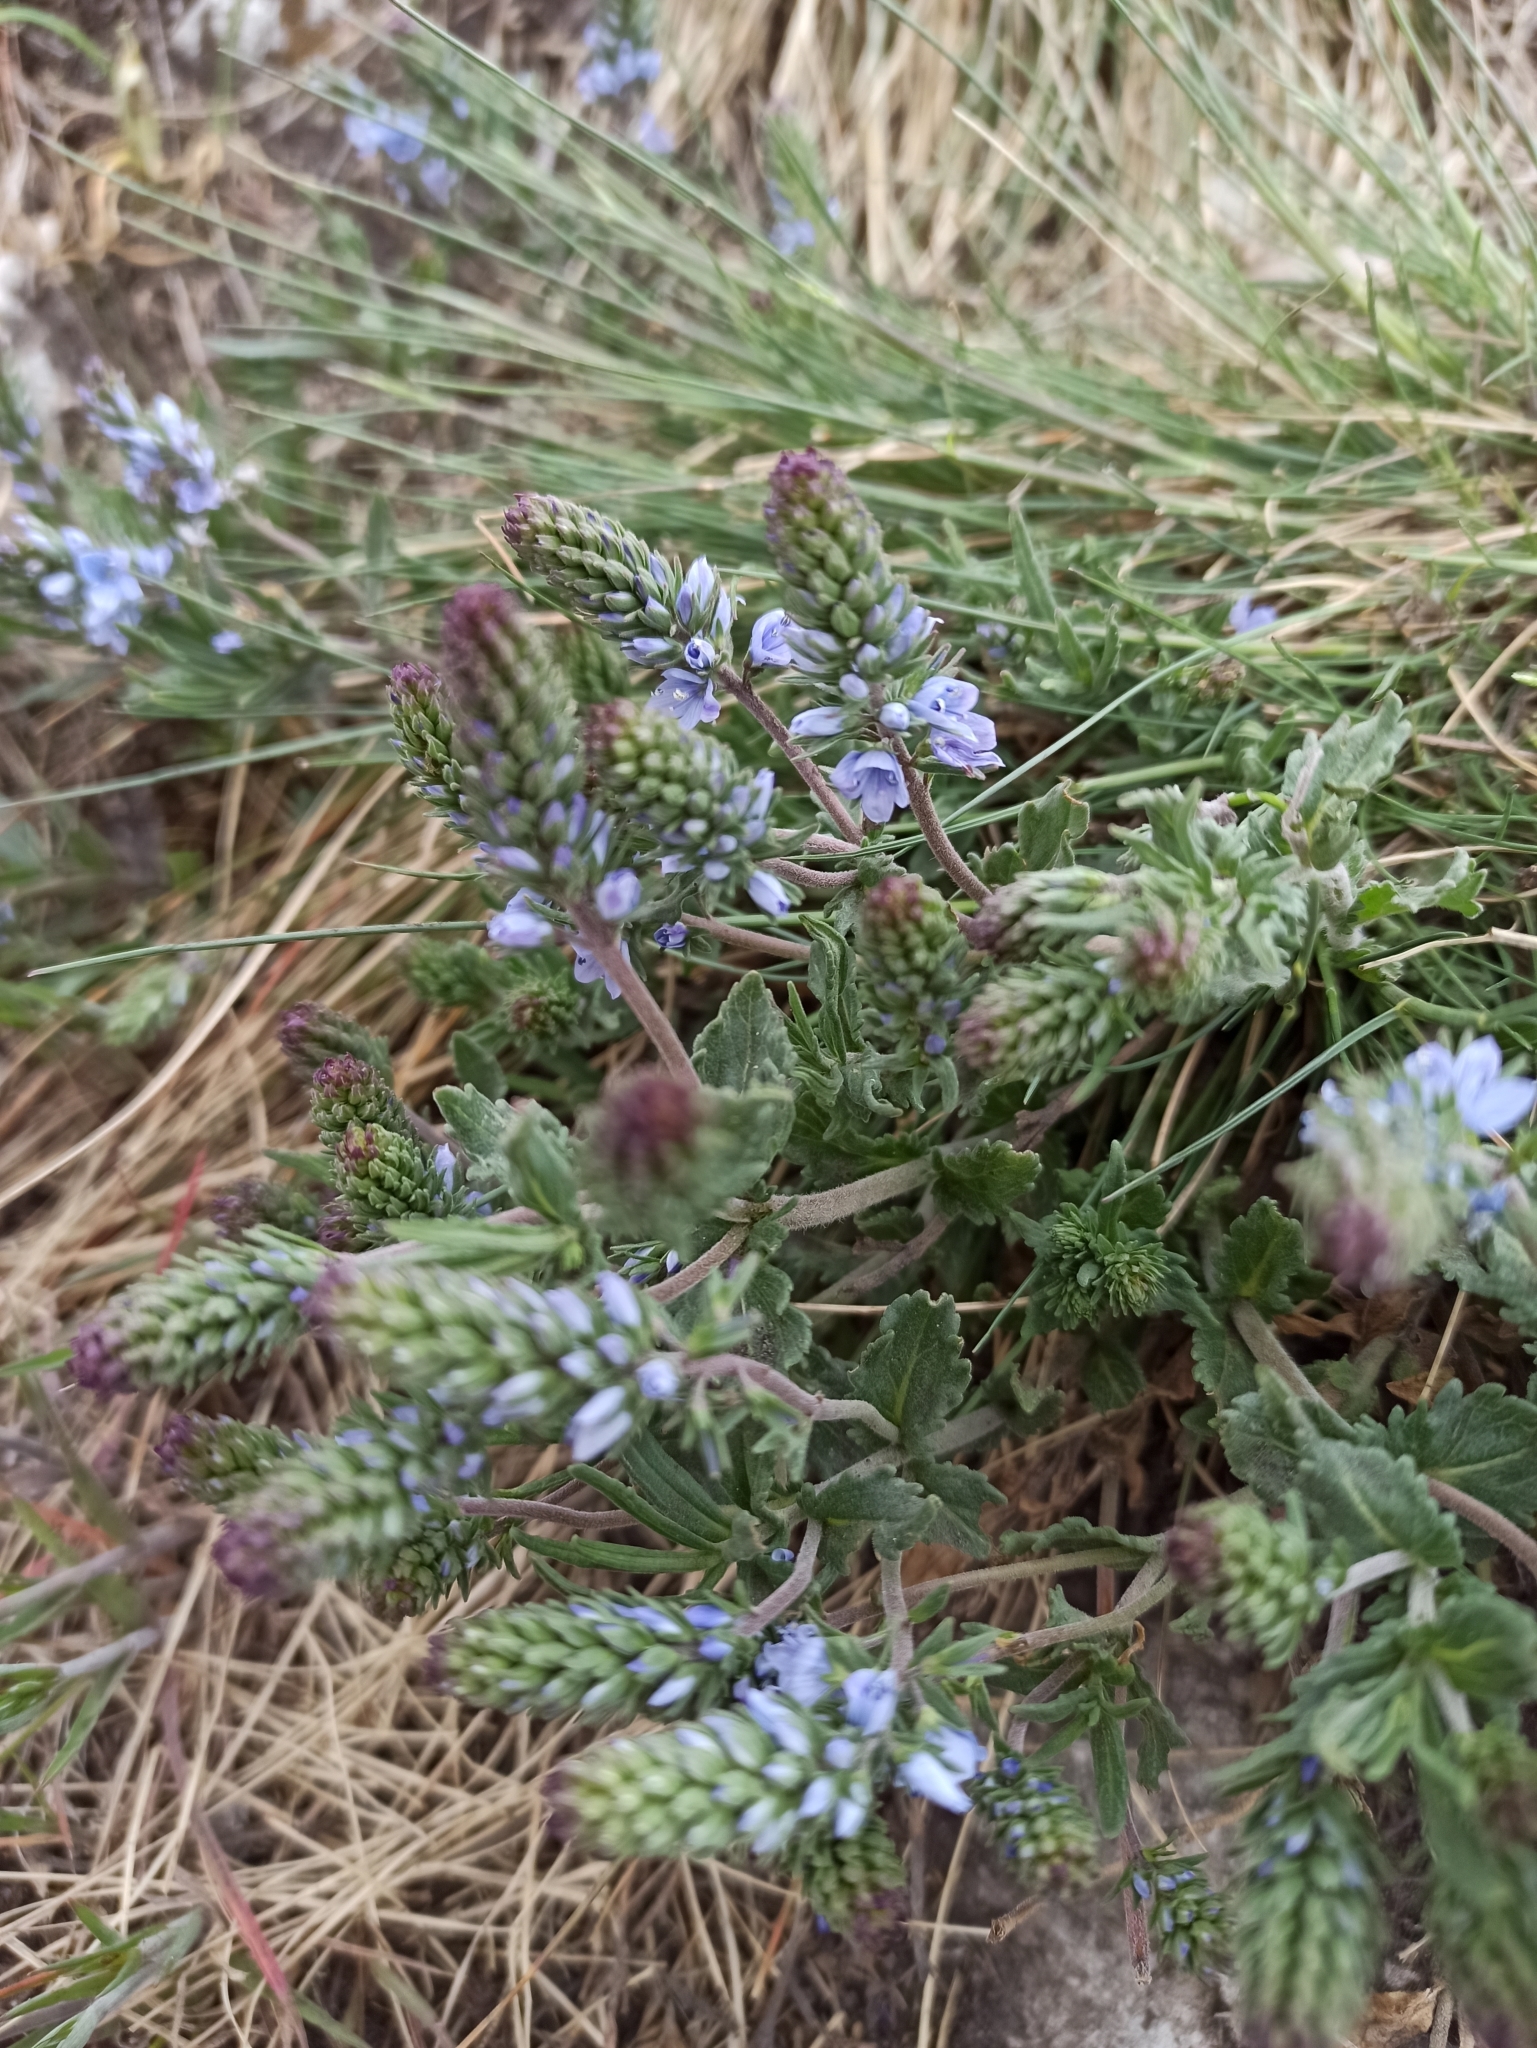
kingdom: Plantae
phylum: Tracheophyta
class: Magnoliopsida
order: Lamiales
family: Plantaginaceae
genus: Veronica
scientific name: Veronica prostrata
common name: Prostrate speedwell
